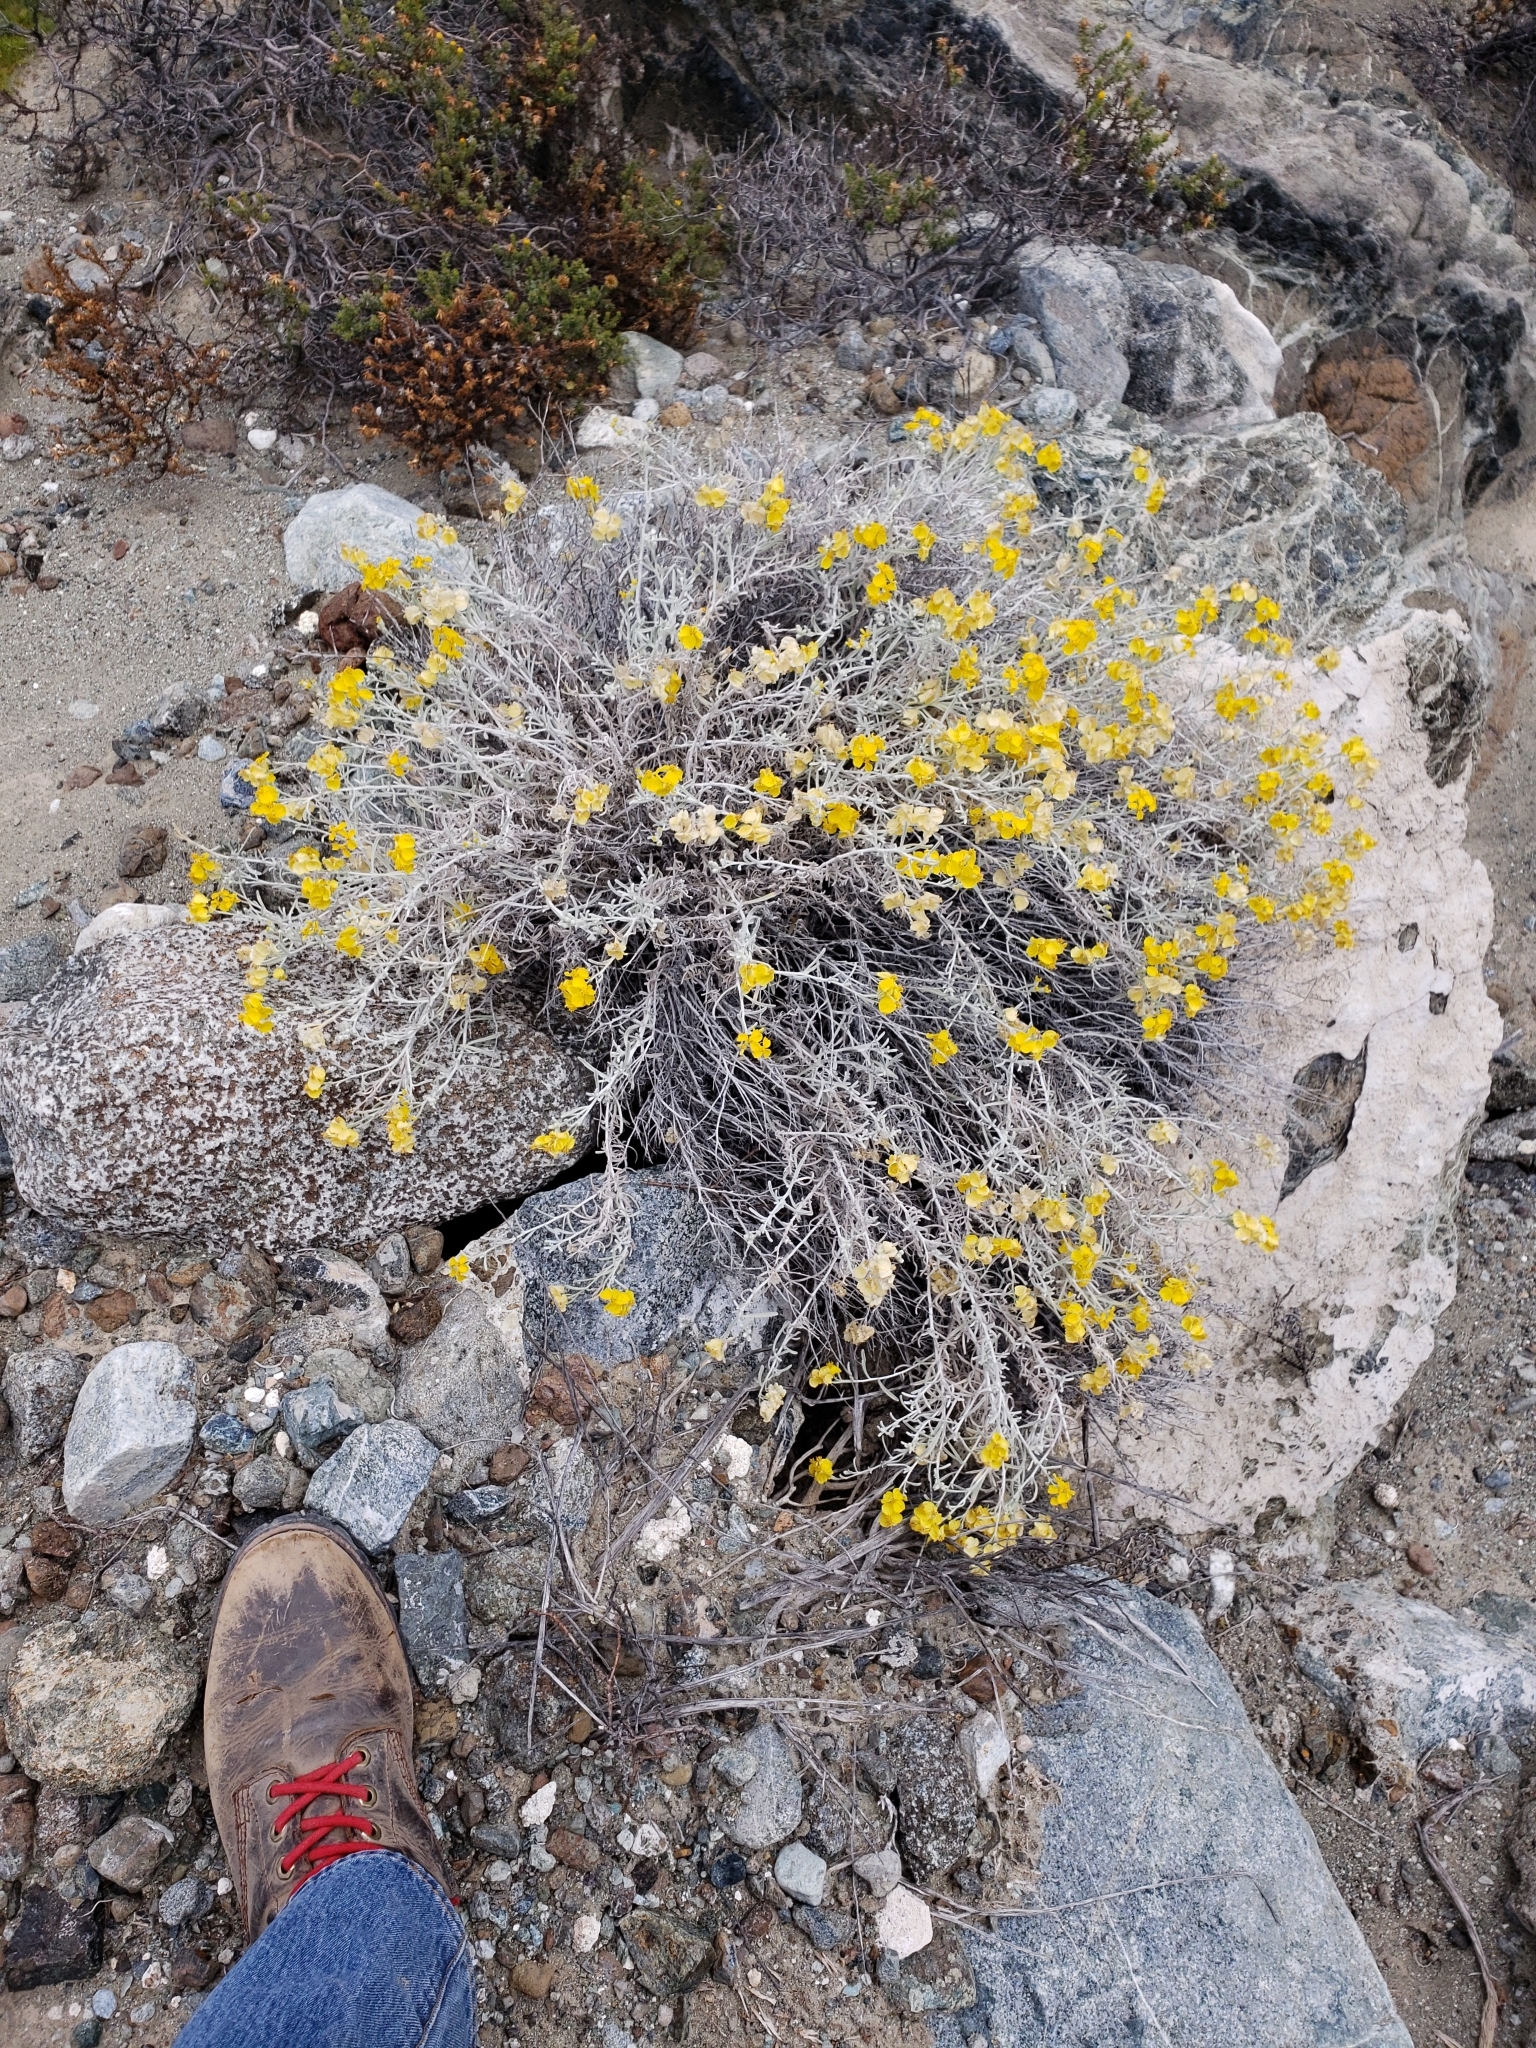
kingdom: Plantae
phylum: Tracheophyta
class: Magnoliopsida
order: Asterales
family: Asteraceae
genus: Psilostrophe
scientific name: Psilostrophe cooperi
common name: White-stem paper-flower
